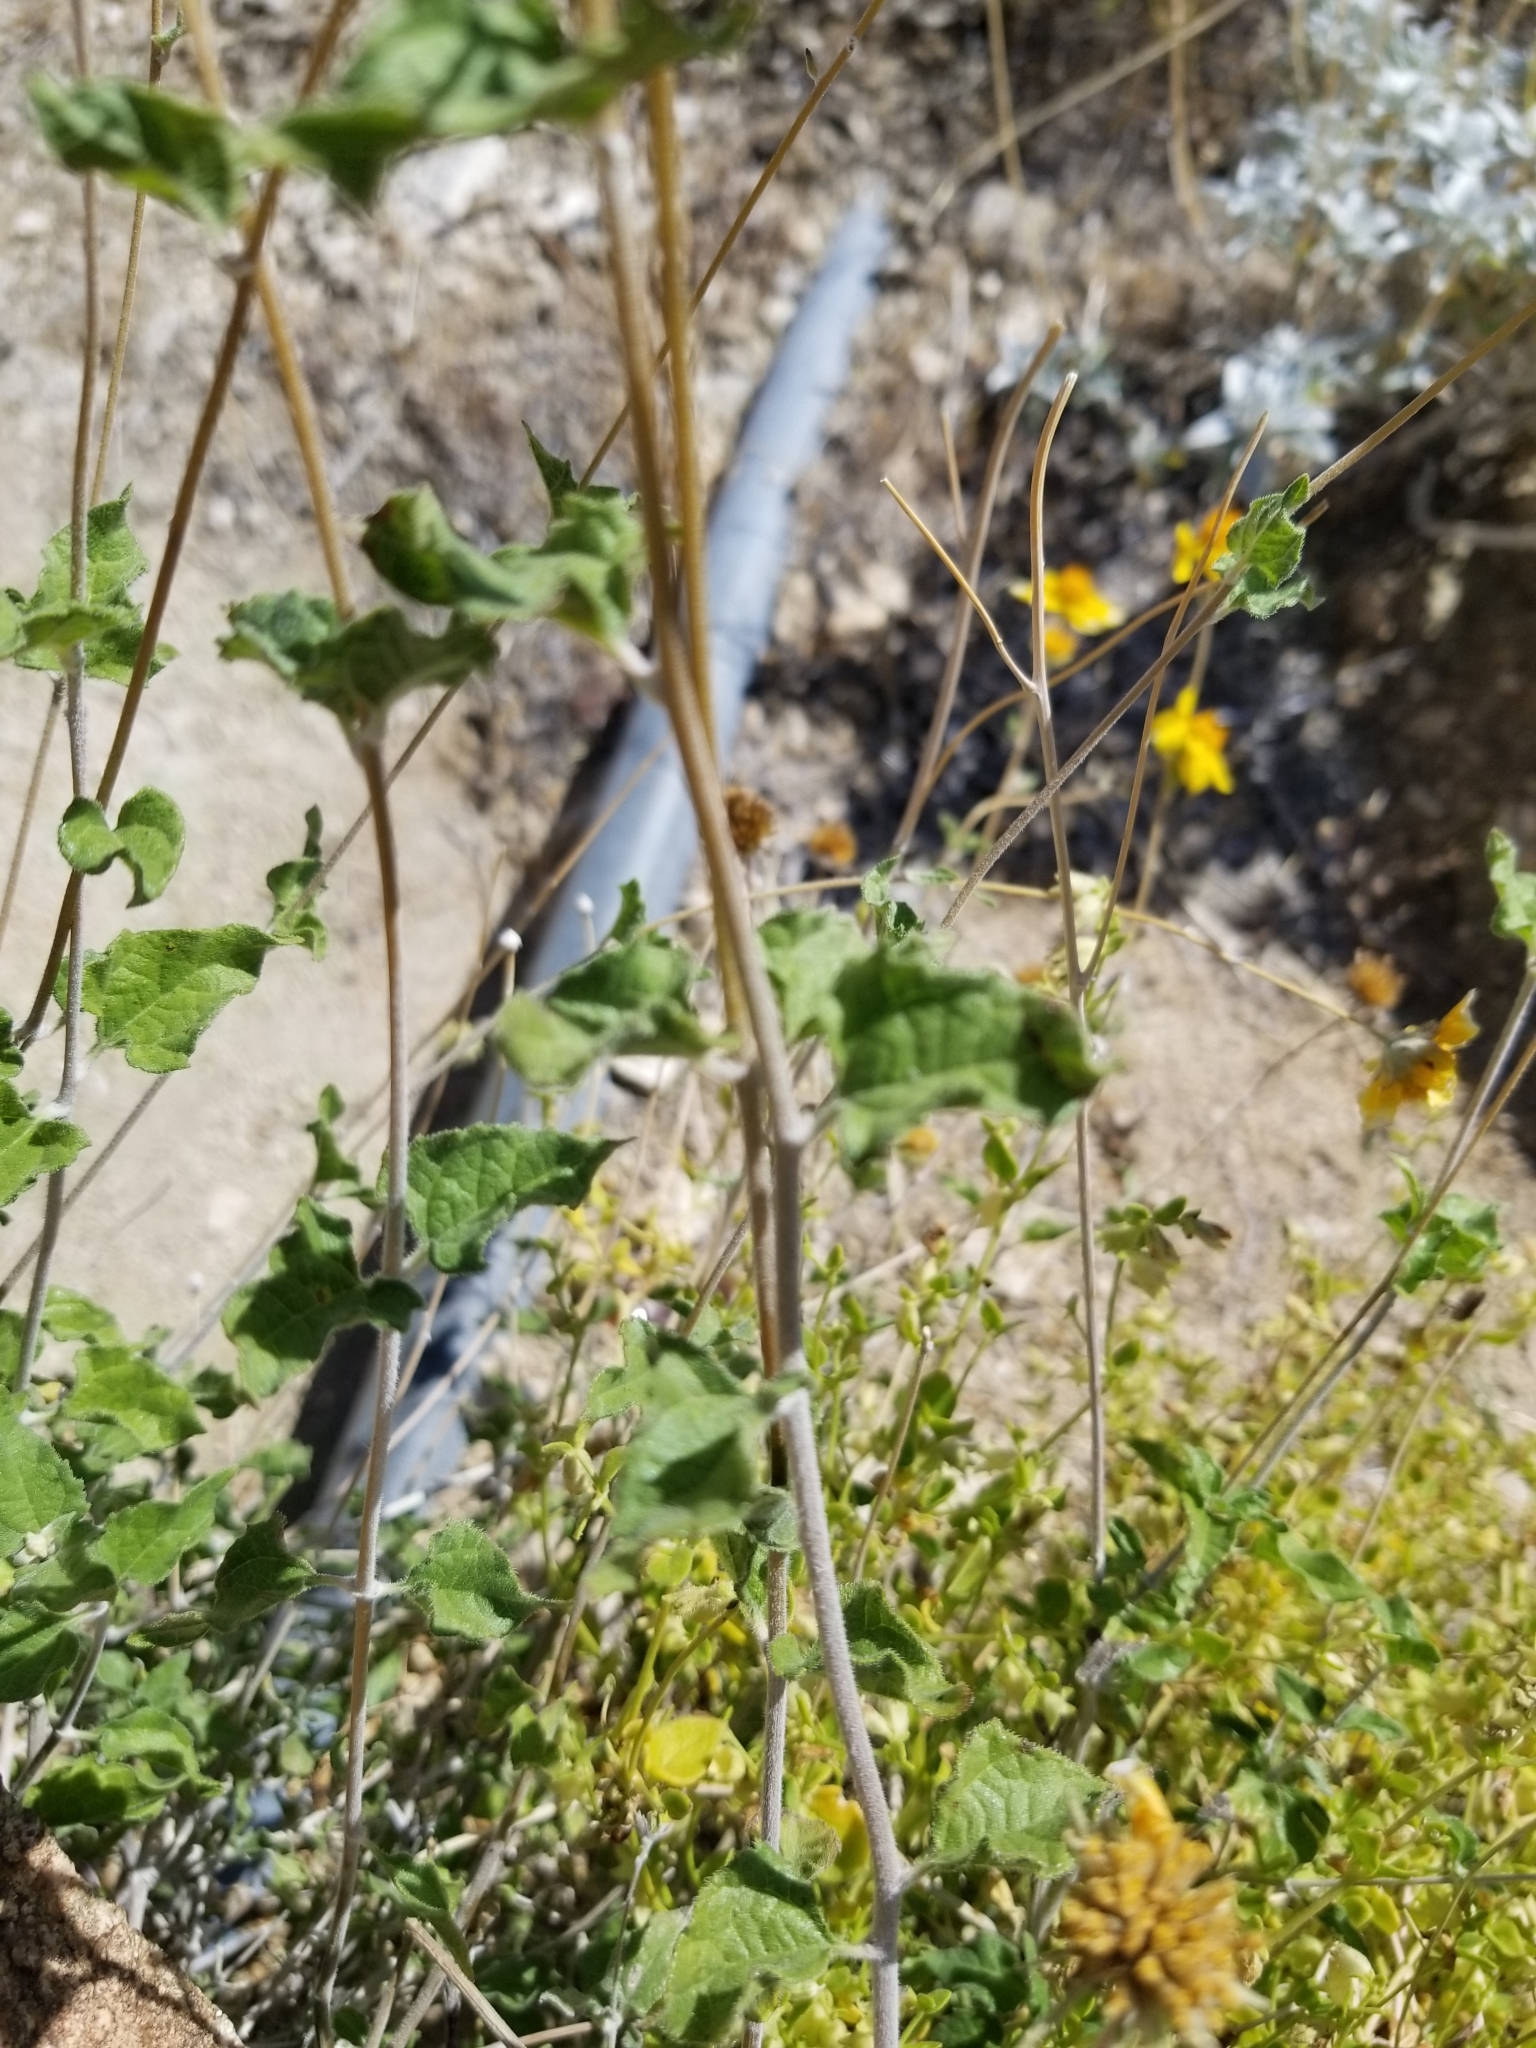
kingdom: Plantae
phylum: Tracheophyta
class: Magnoliopsida
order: Asterales
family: Asteraceae
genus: Bahiopsis
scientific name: Bahiopsis parishii
